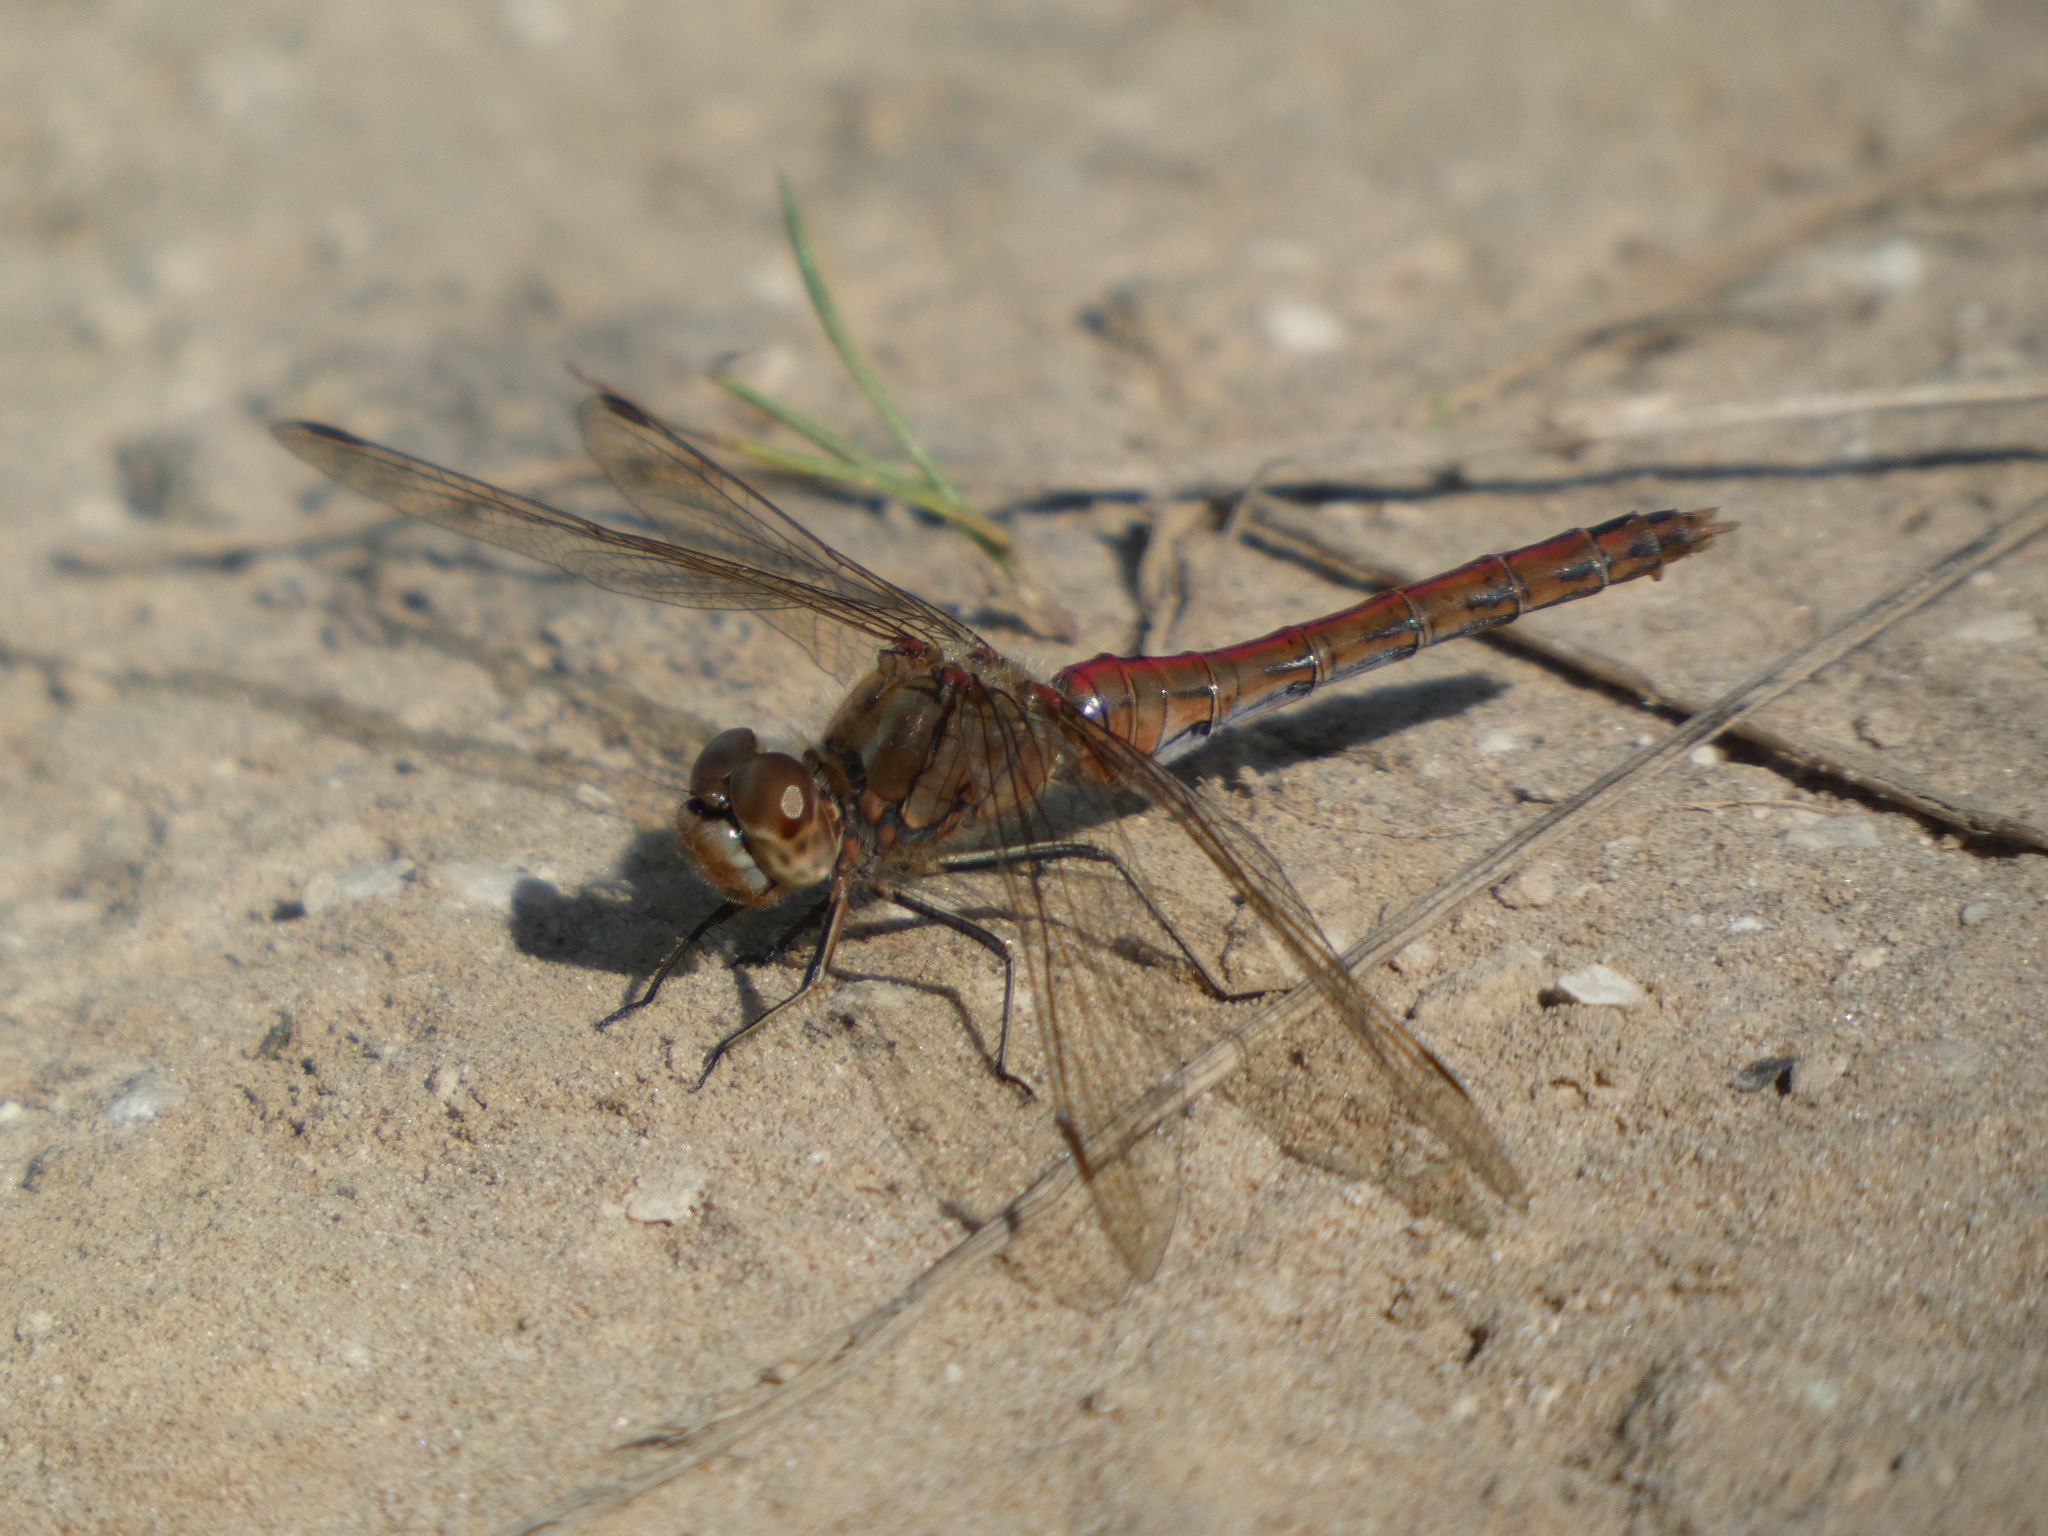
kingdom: Animalia
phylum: Arthropoda
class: Insecta
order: Odonata
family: Libellulidae
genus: Sympetrum
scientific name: Sympetrum vulgatum
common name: Vagrant darter
